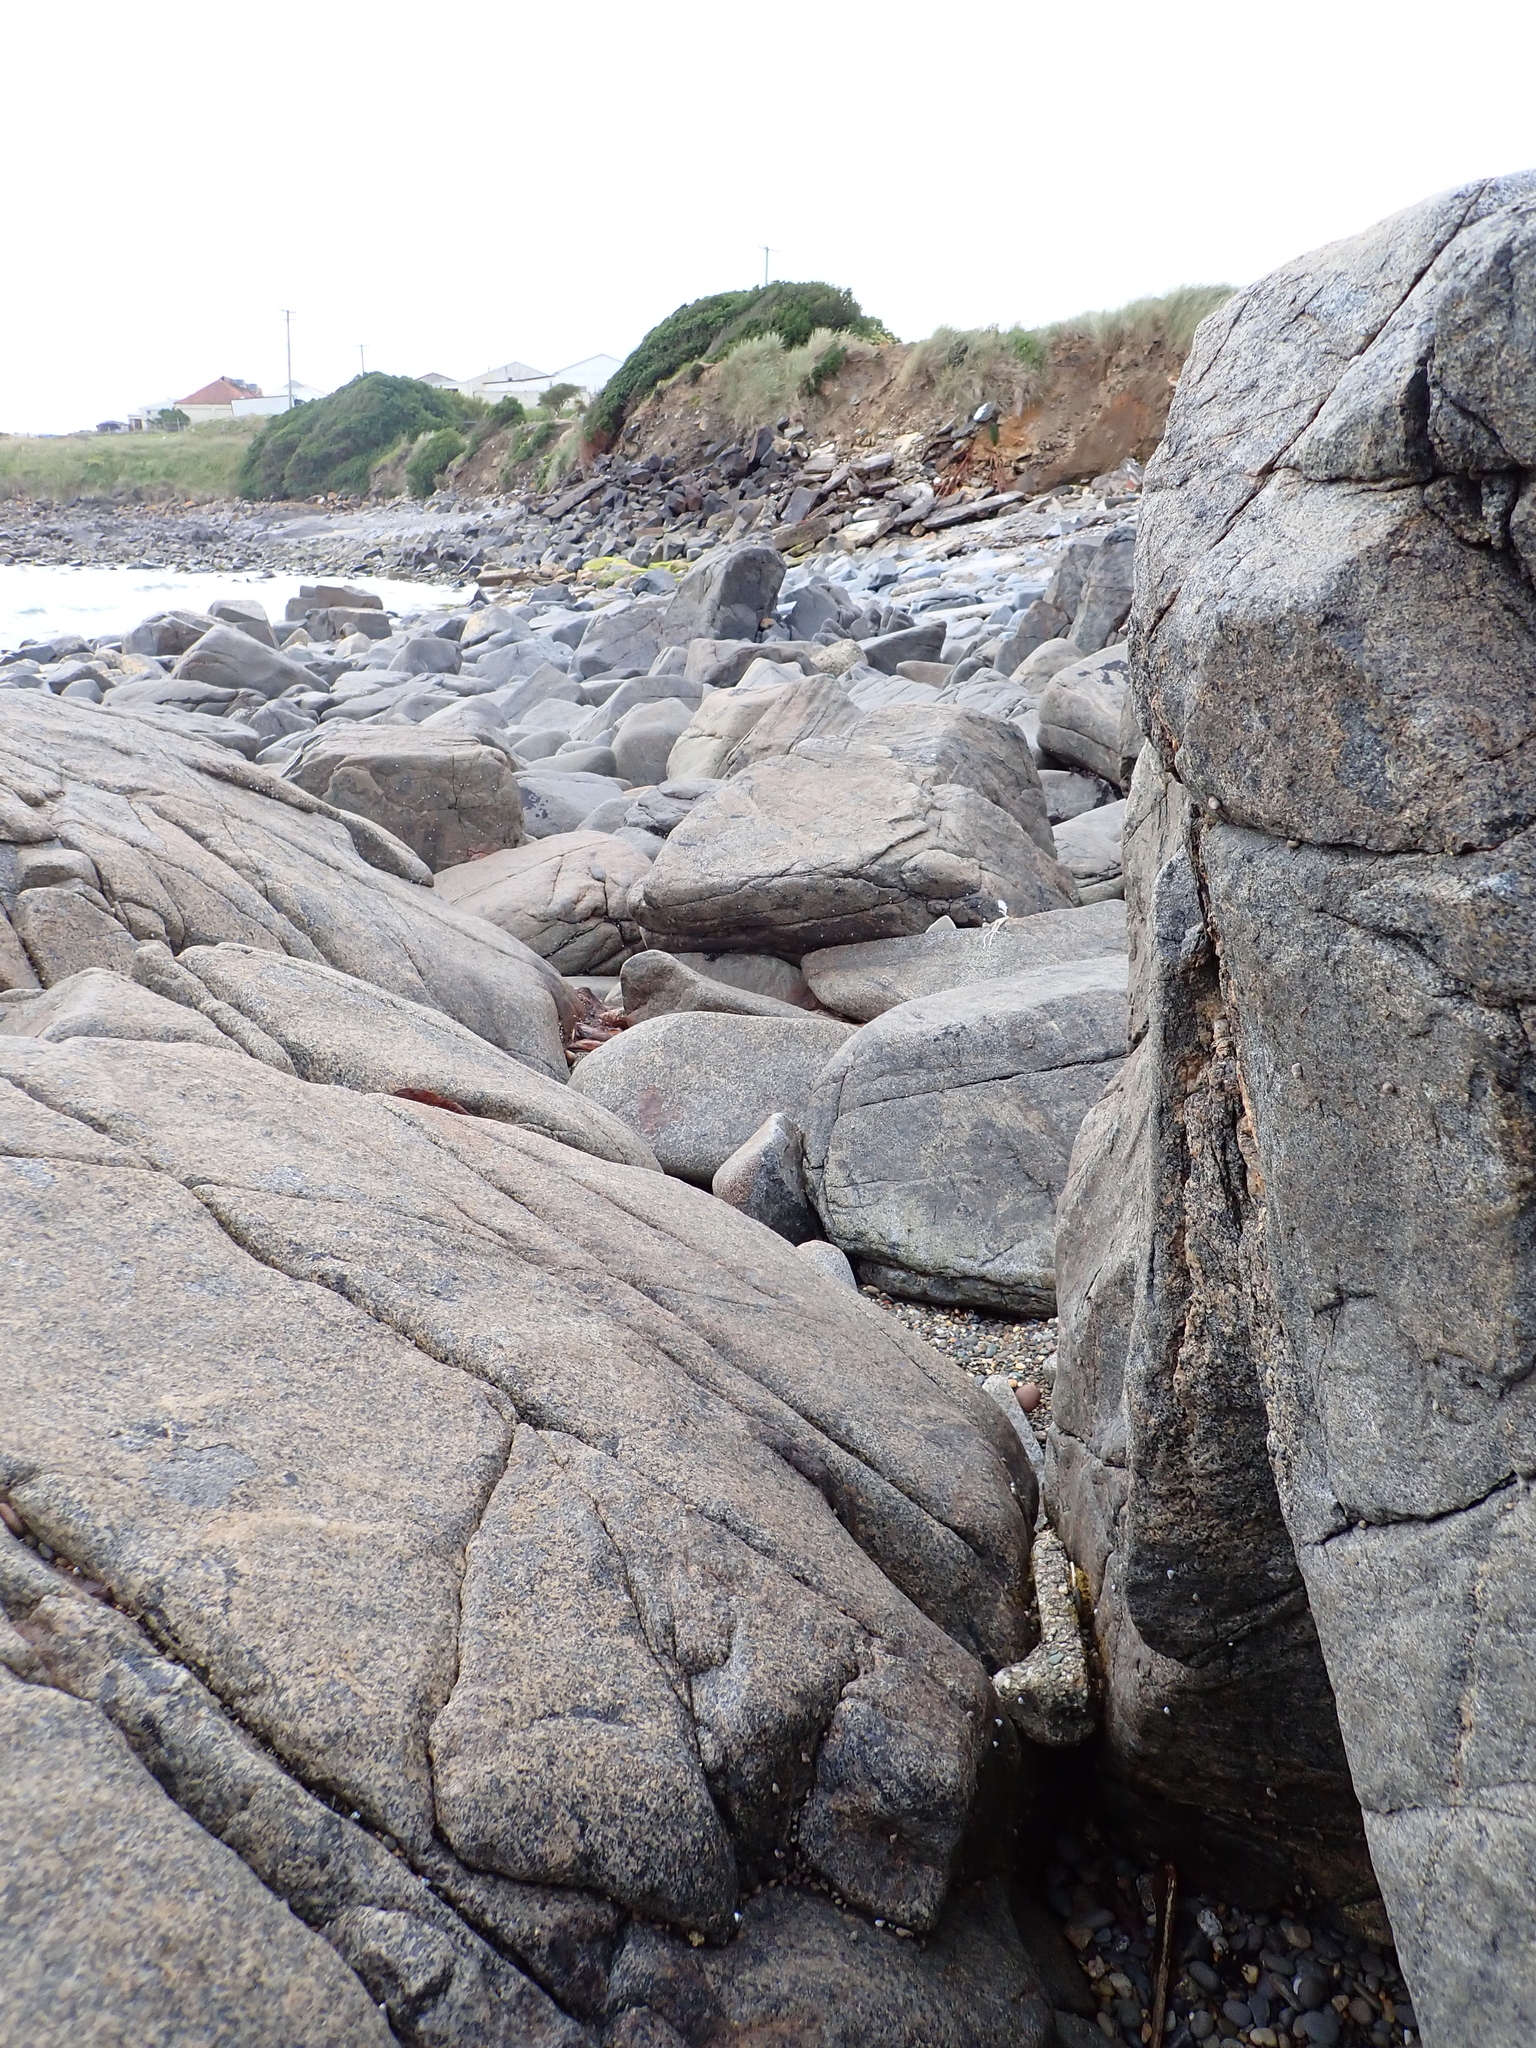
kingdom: Animalia
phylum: Mollusca
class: Gastropoda
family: Lottiidae
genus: Notoacmea
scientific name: Notoacmea sturnus
